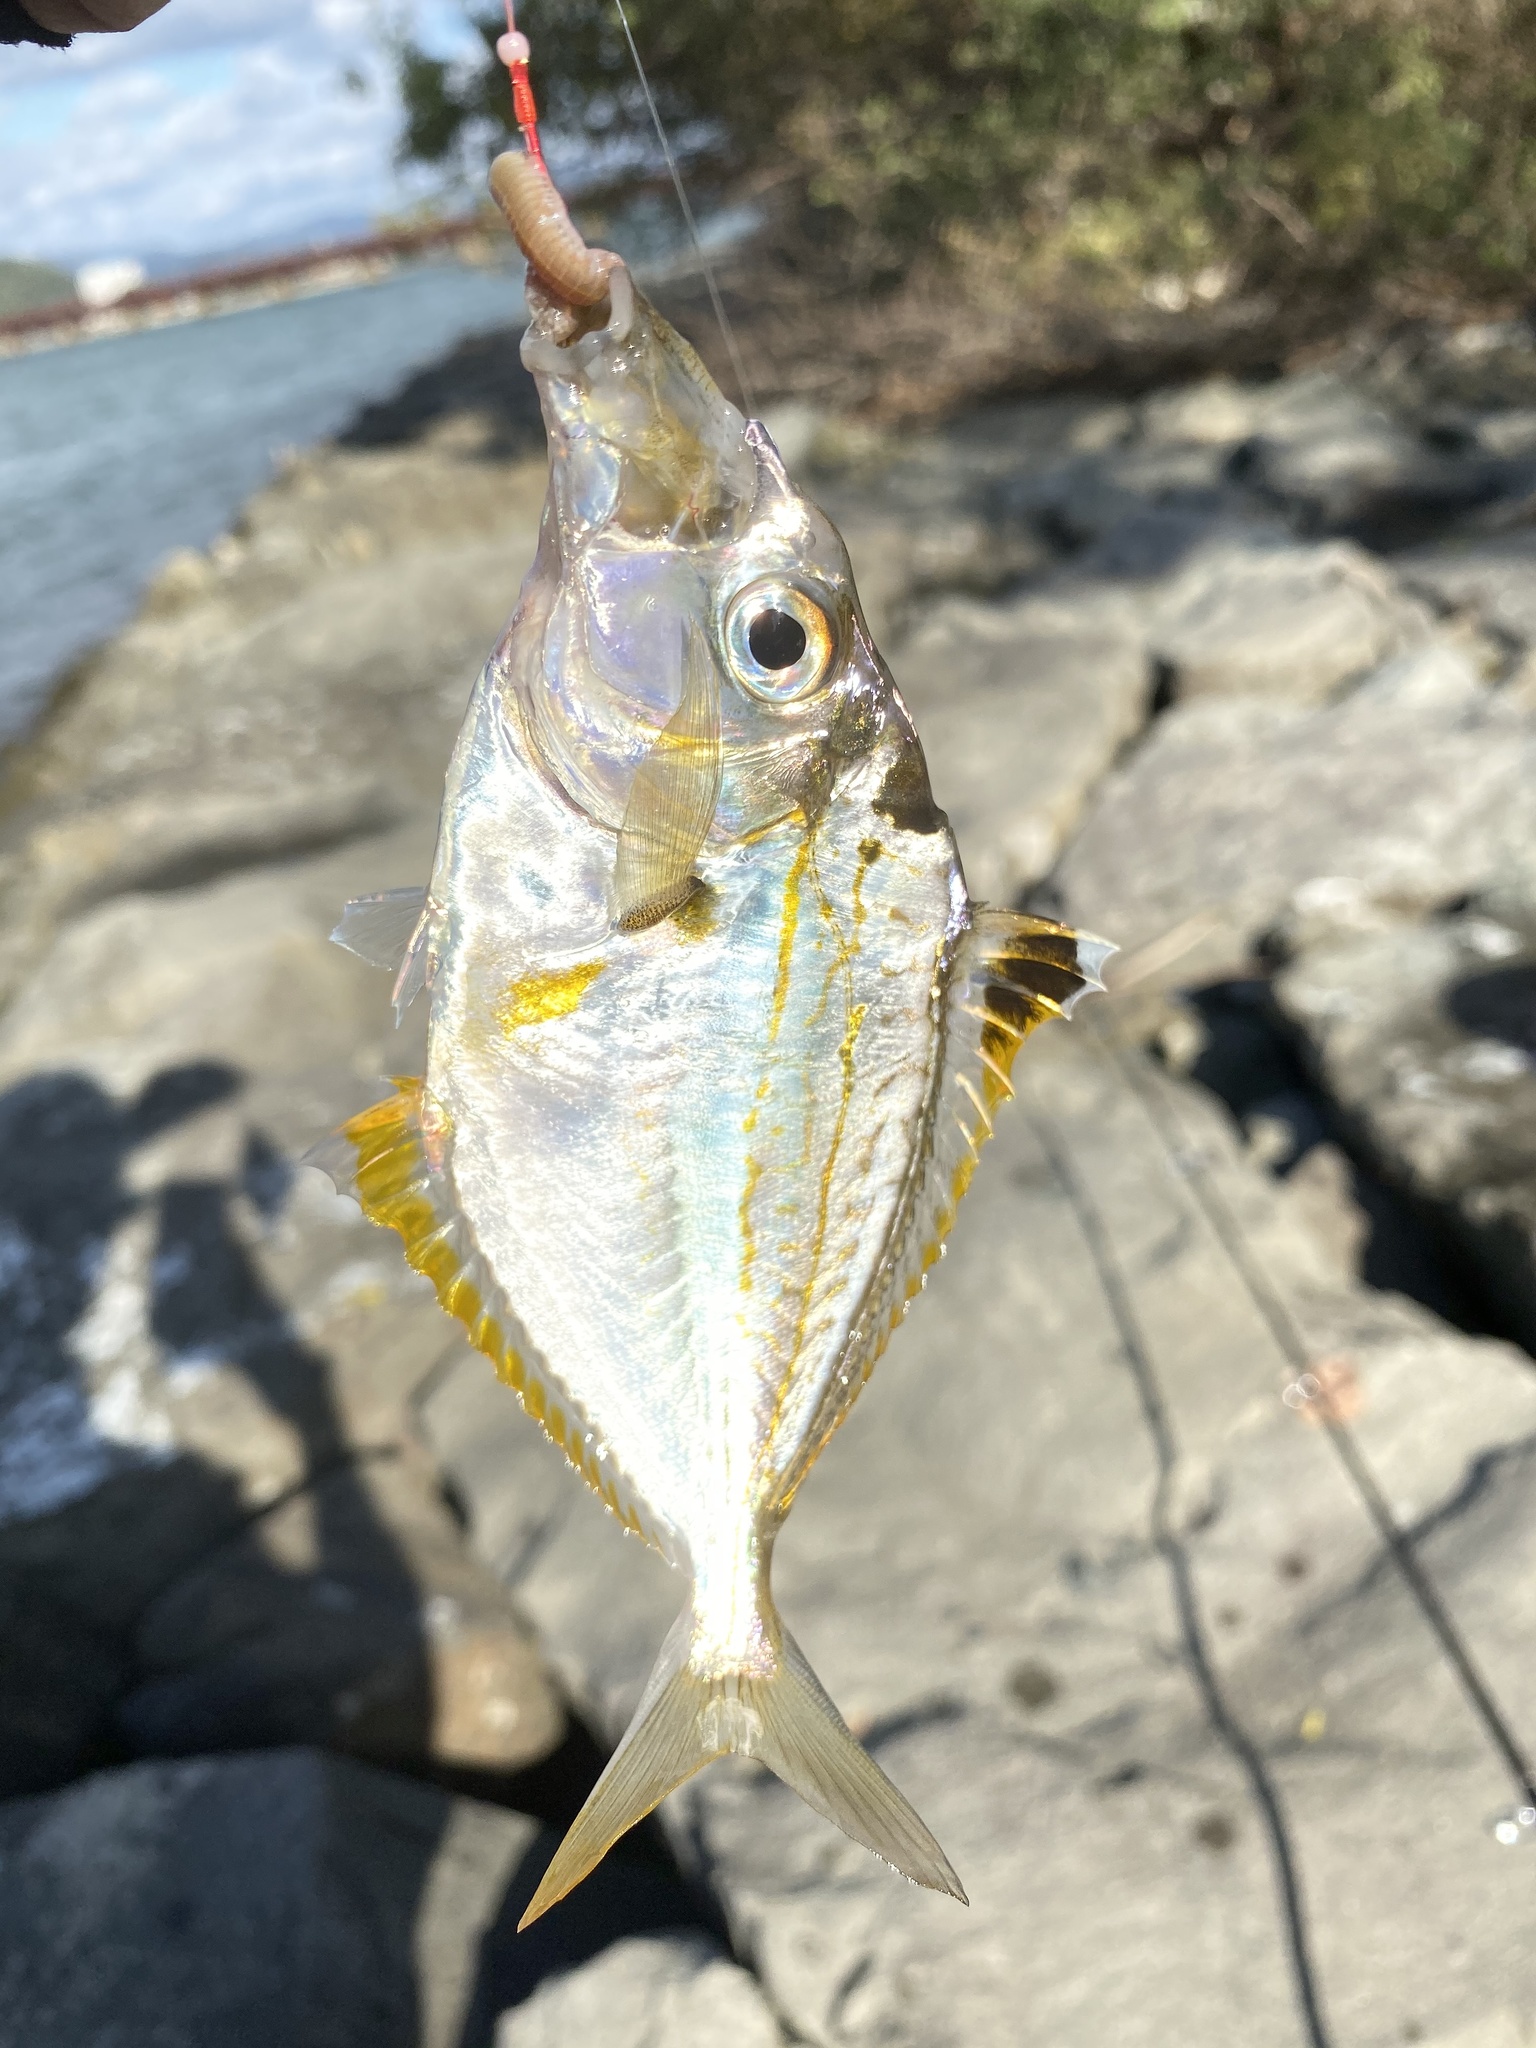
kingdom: Animalia
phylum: Chordata
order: Perciformes
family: Leiognathidae
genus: Nuchequula
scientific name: Nuchequula nuchalis
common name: Spotnape ponyfish
